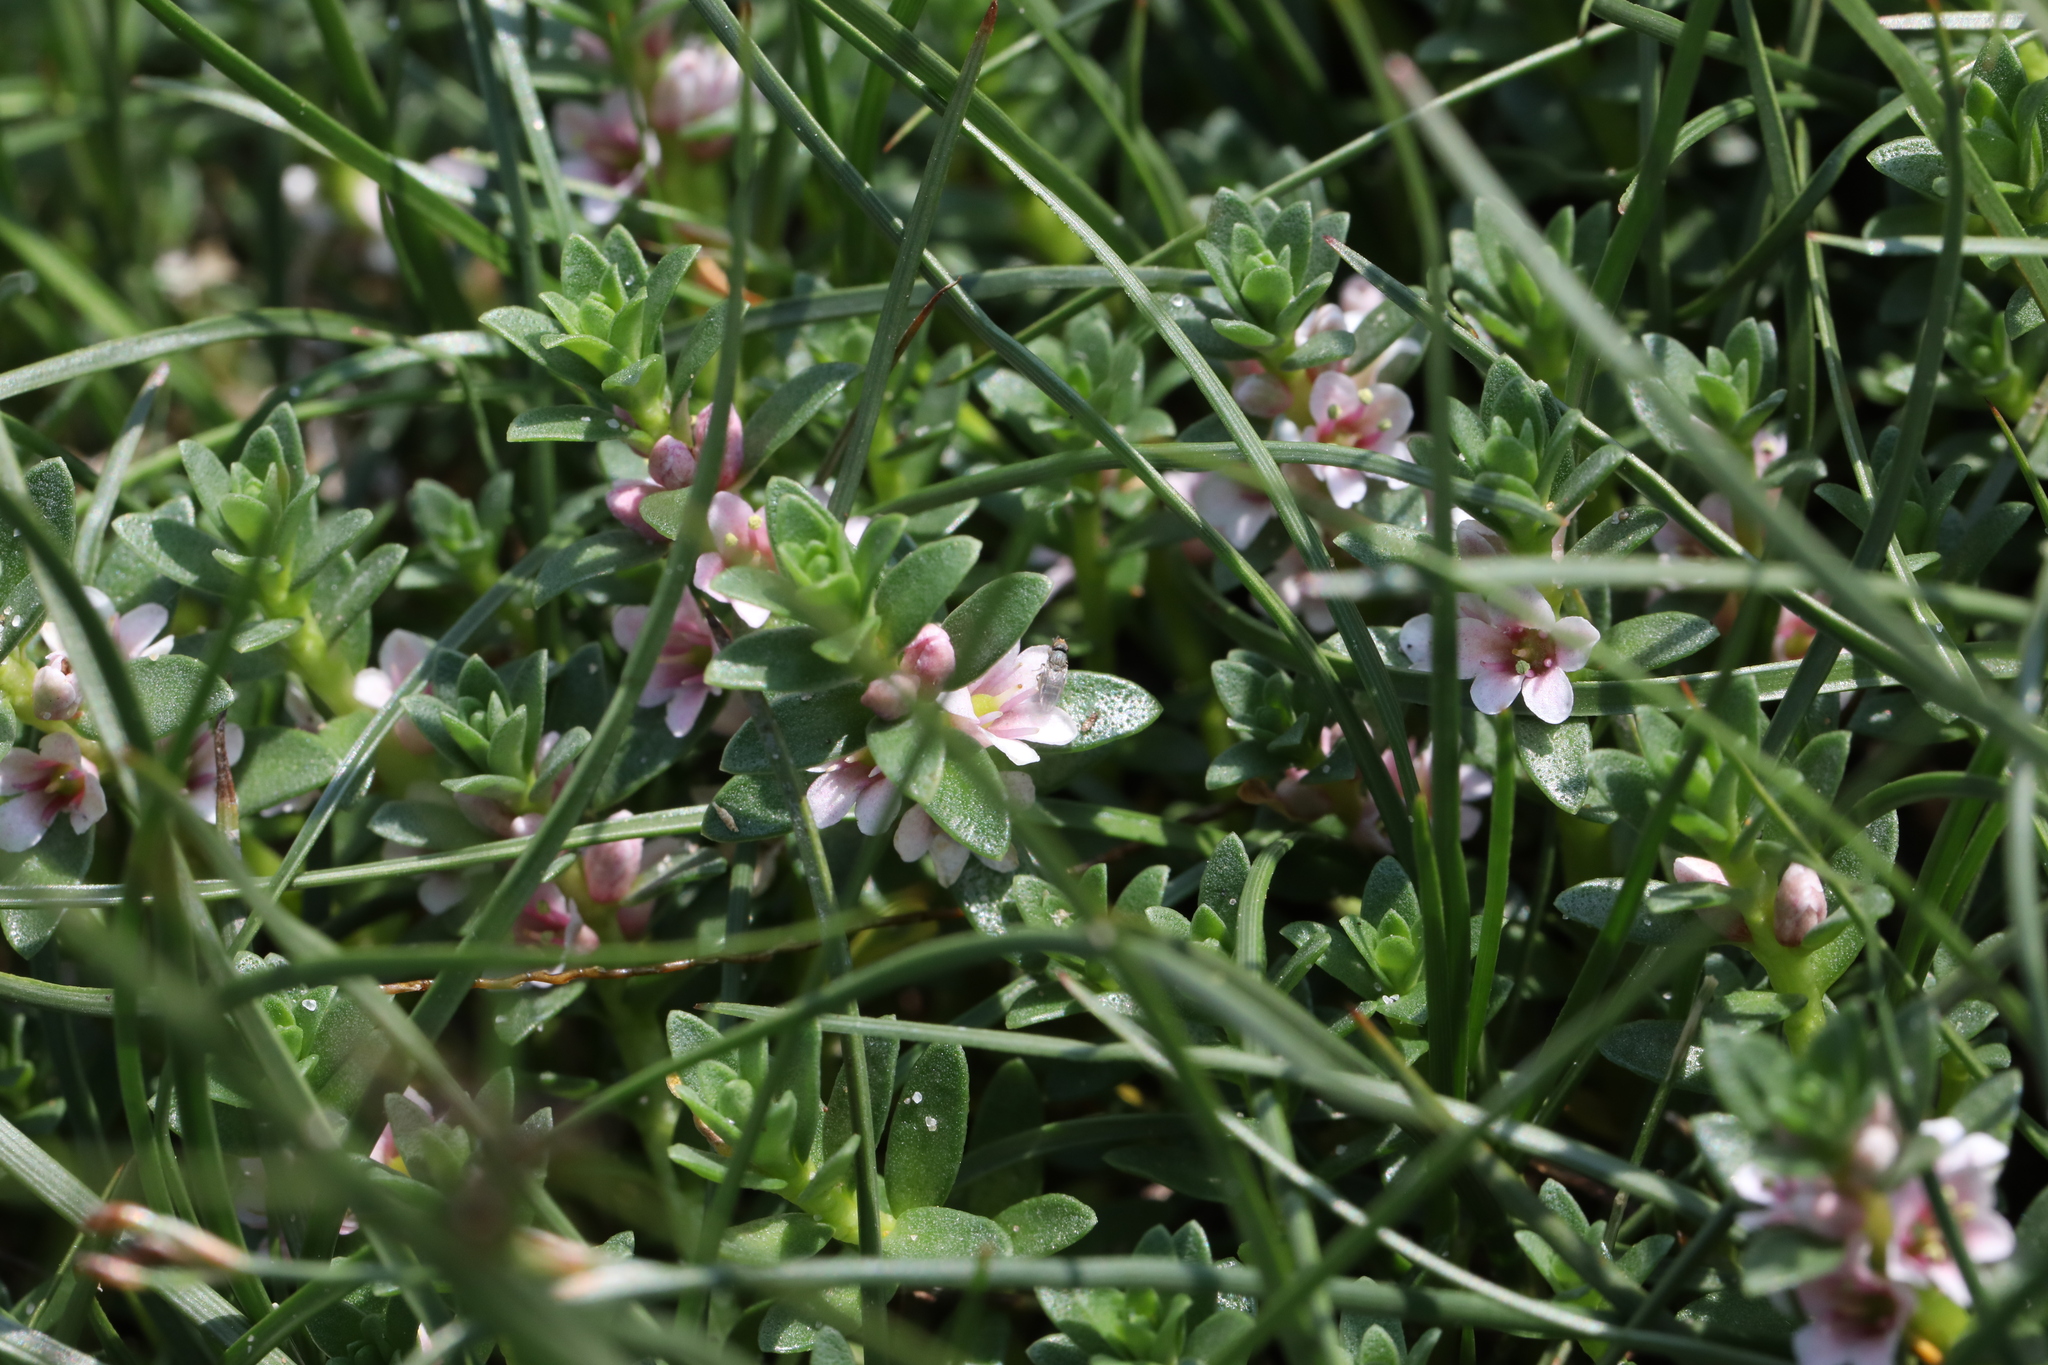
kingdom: Plantae
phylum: Tracheophyta
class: Magnoliopsida
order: Ericales
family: Primulaceae
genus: Lysimachia
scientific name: Lysimachia maritima
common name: Sea milkwort
